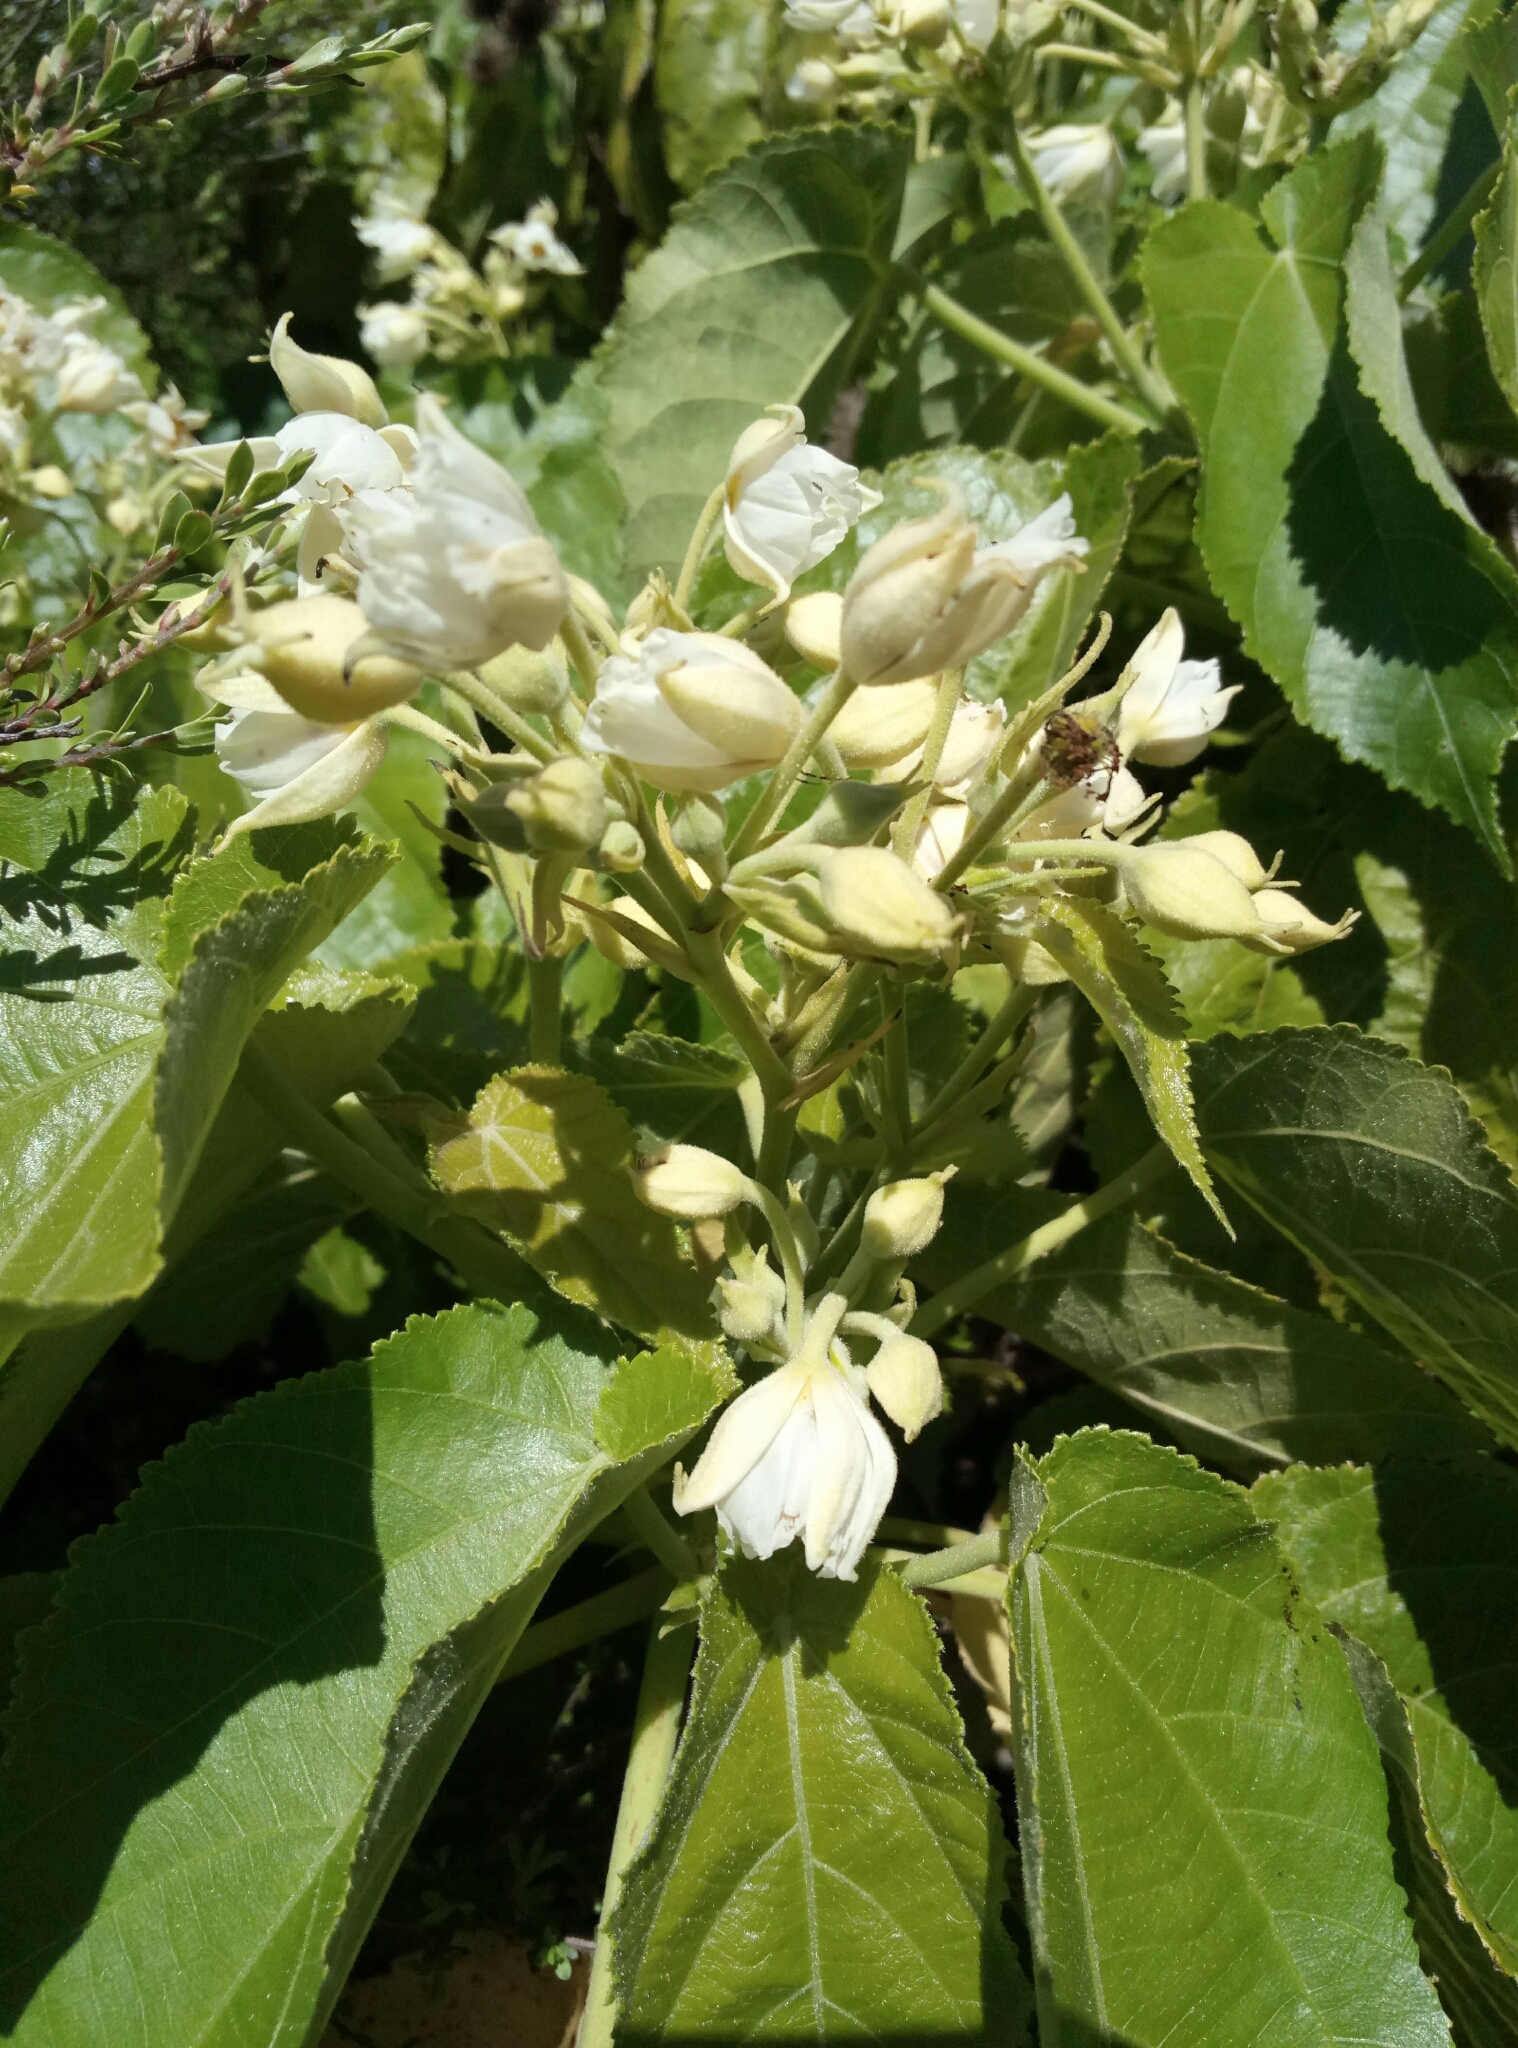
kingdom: Plantae
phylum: Tracheophyta
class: Magnoliopsida
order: Malvales
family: Malvaceae
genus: Entelea
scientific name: Entelea arborescens
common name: New zealand-mulberry
